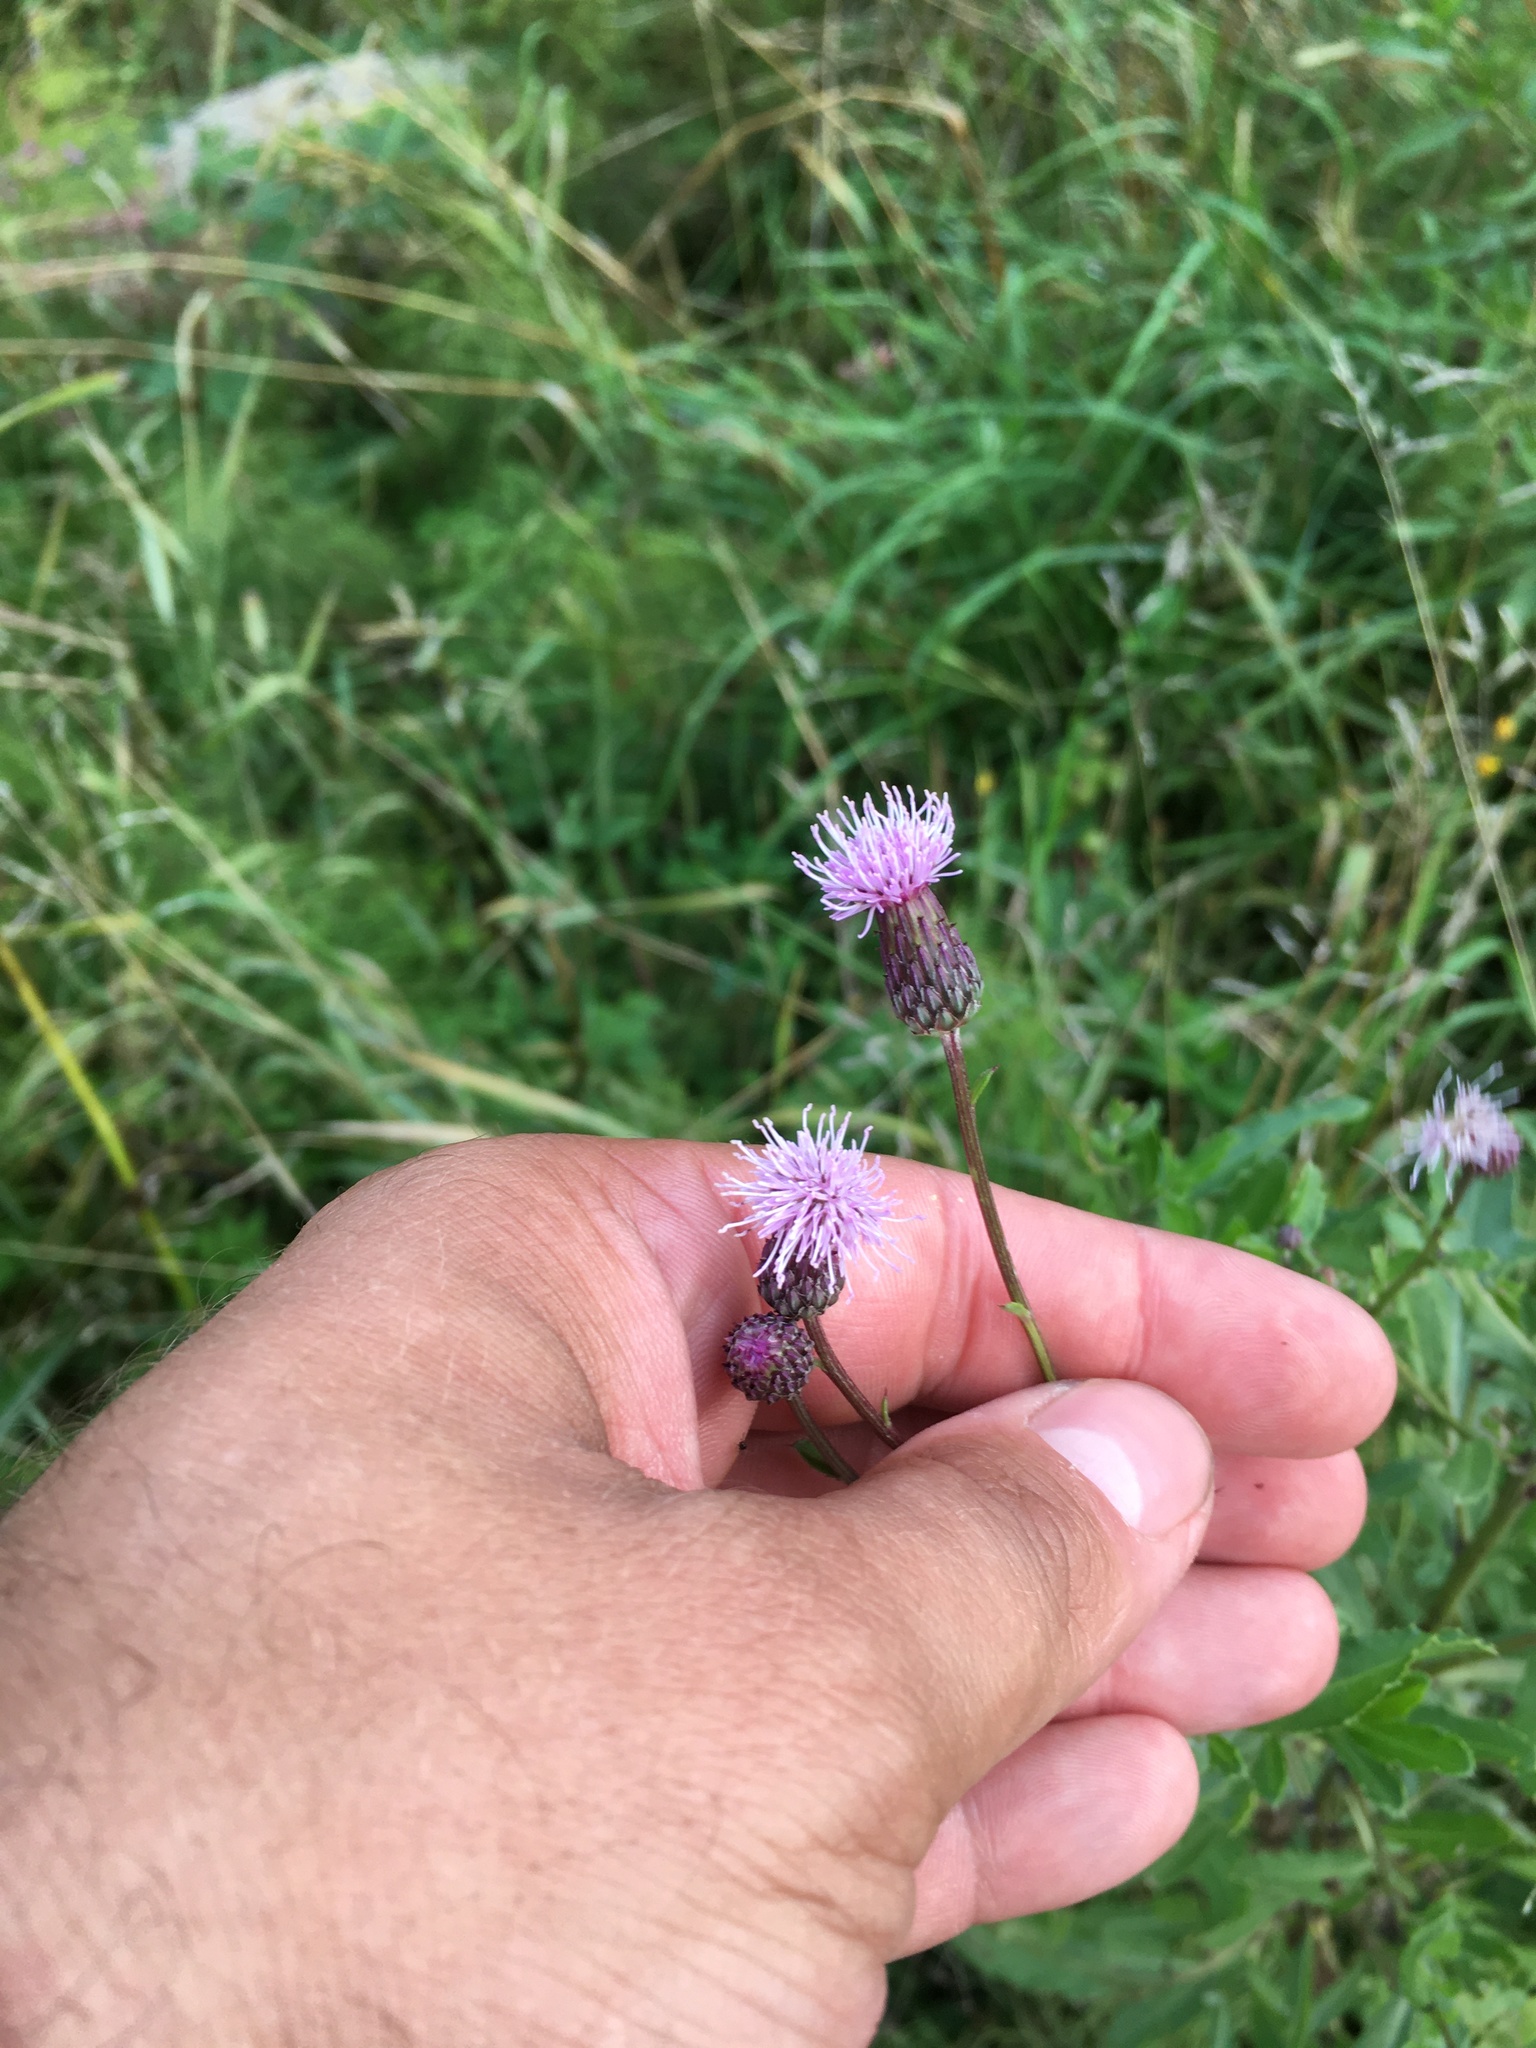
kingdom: Plantae
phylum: Tracheophyta
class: Magnoliopsida
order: Asterales
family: Asteraceae
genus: Cirsium
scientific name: Cirsium arvense
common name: Creeping thistle
